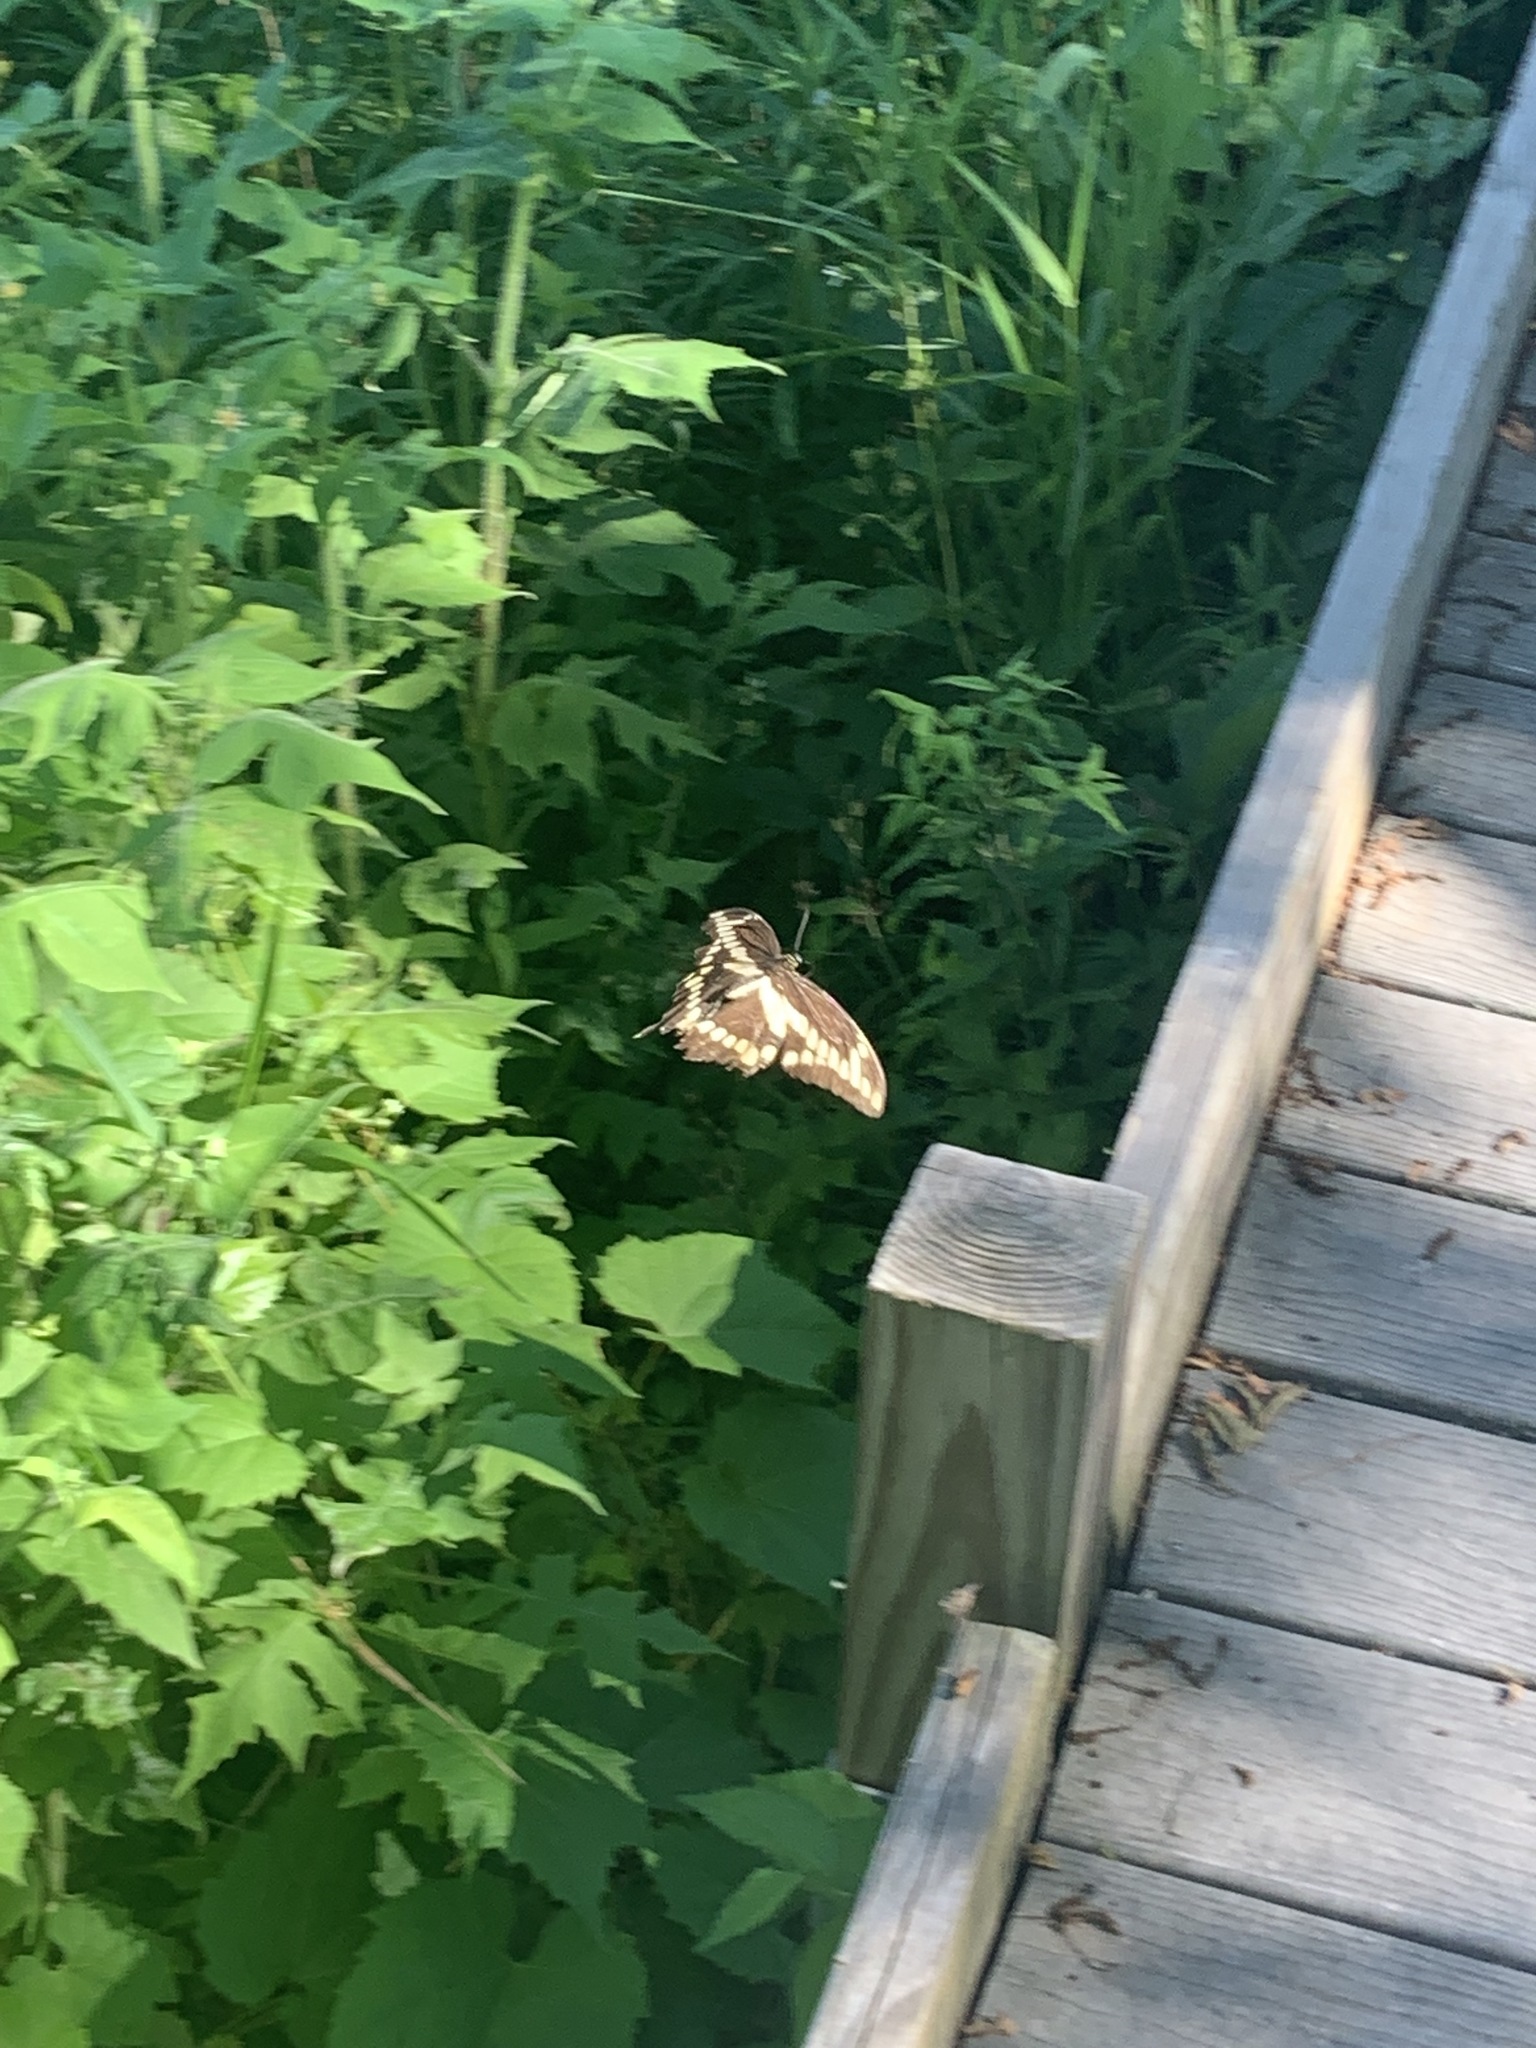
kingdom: Animalia
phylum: Arthropoda
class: Insecta
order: Lepidoptera
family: Papilionidae
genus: Papilio
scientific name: Papilio cresphontes
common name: Giant swallowtail
